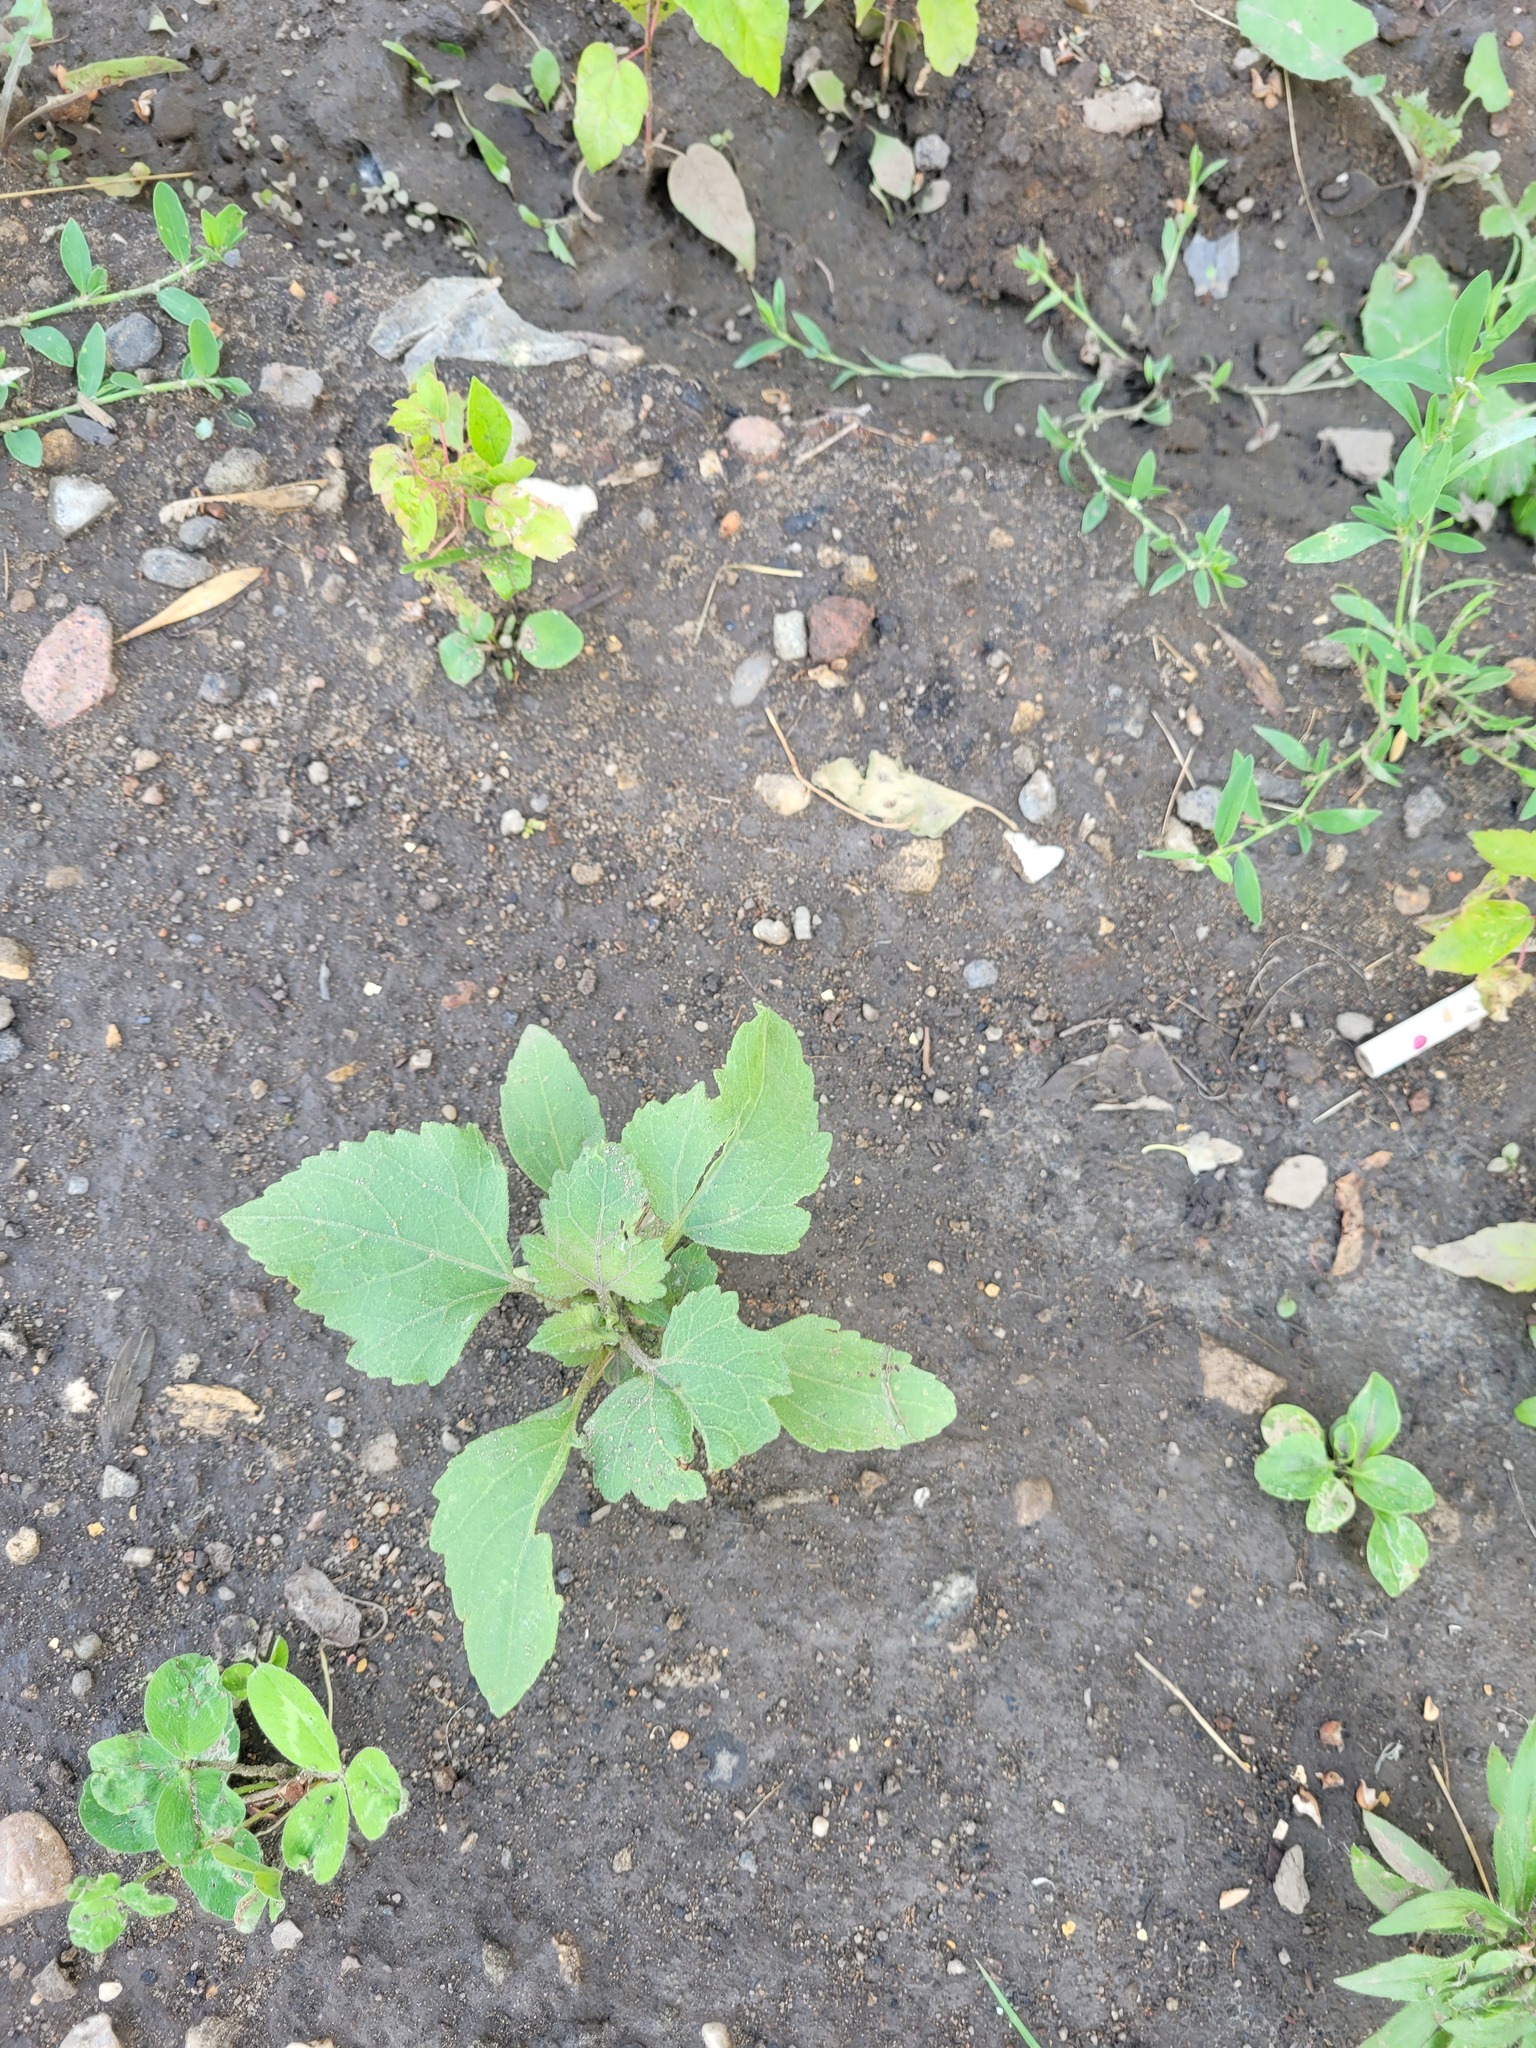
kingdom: Plantae
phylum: Tracheophyta
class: Magnoliopsida
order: Asterales
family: Asteraceae
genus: Xanthium
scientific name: Xanthium orientale
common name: Californian burr
